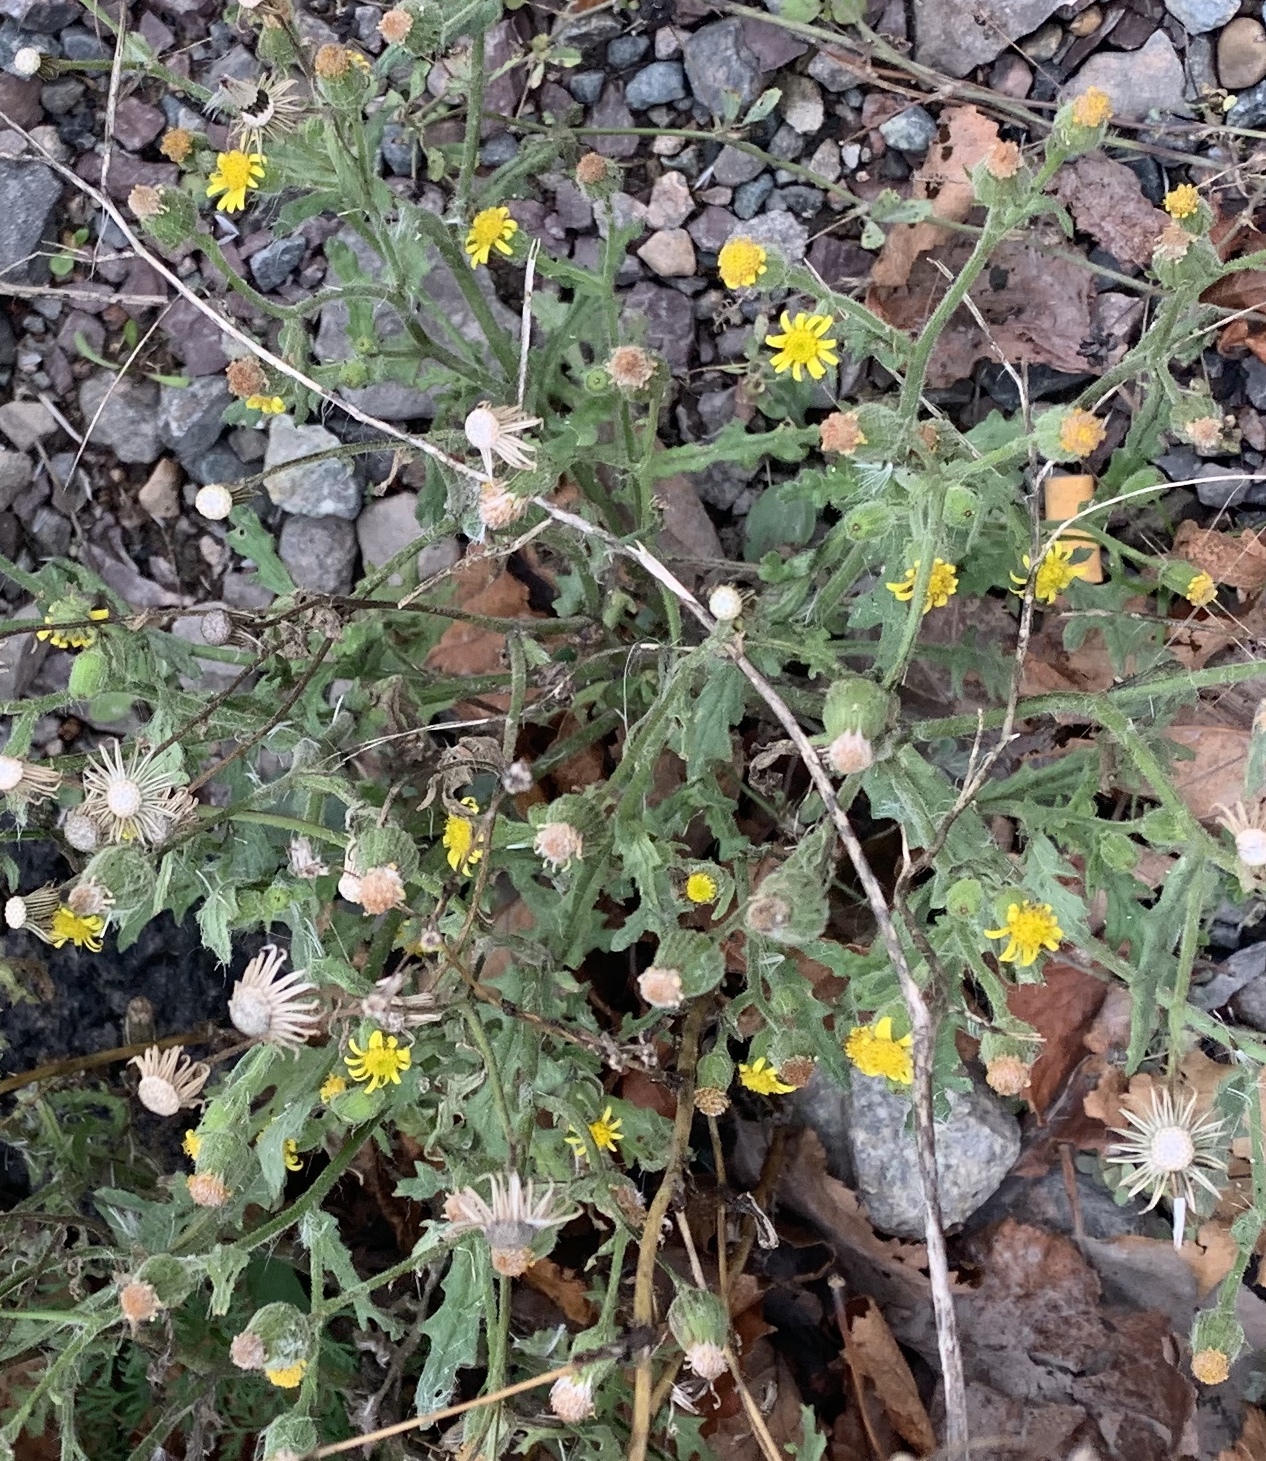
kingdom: Plantae
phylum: Tracheophyta
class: Magnoliopsida
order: Asterales
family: Asteraceae
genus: Senecio
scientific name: Senecio viscosus
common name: Sticky groundsel
